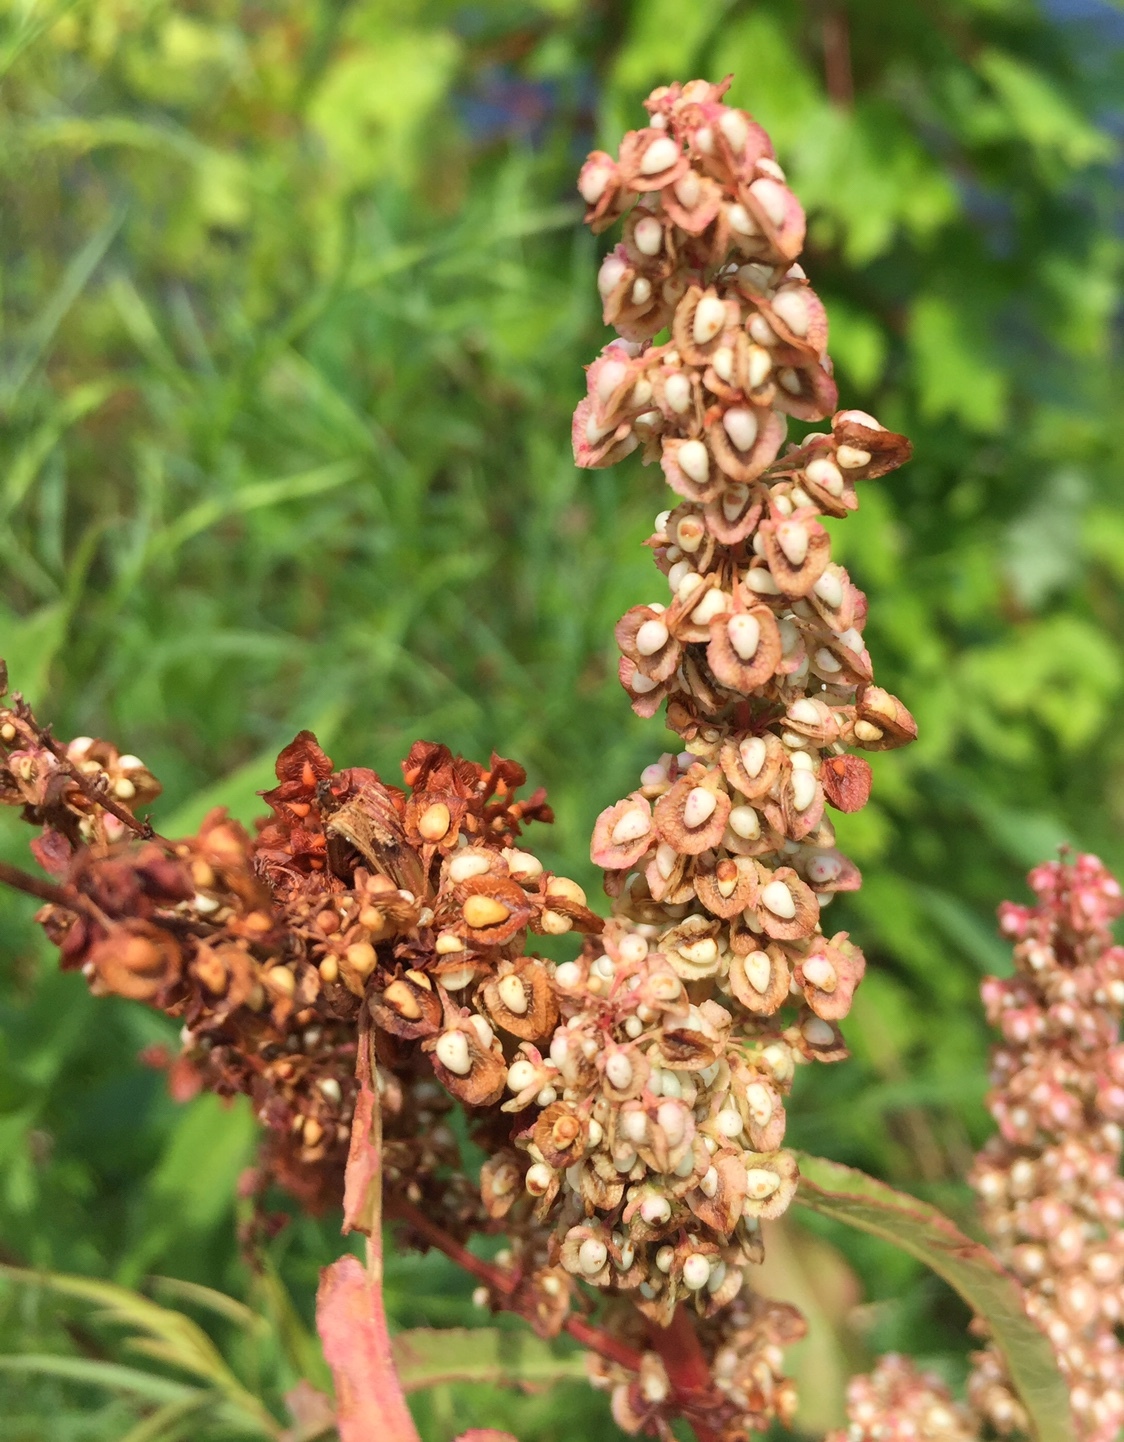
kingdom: Plantae
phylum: Tracheophyta
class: Magnoliopsida
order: Caryophyllales
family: Polygonaceae
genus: Rumex
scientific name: Rumex crispus
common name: Curled dock
